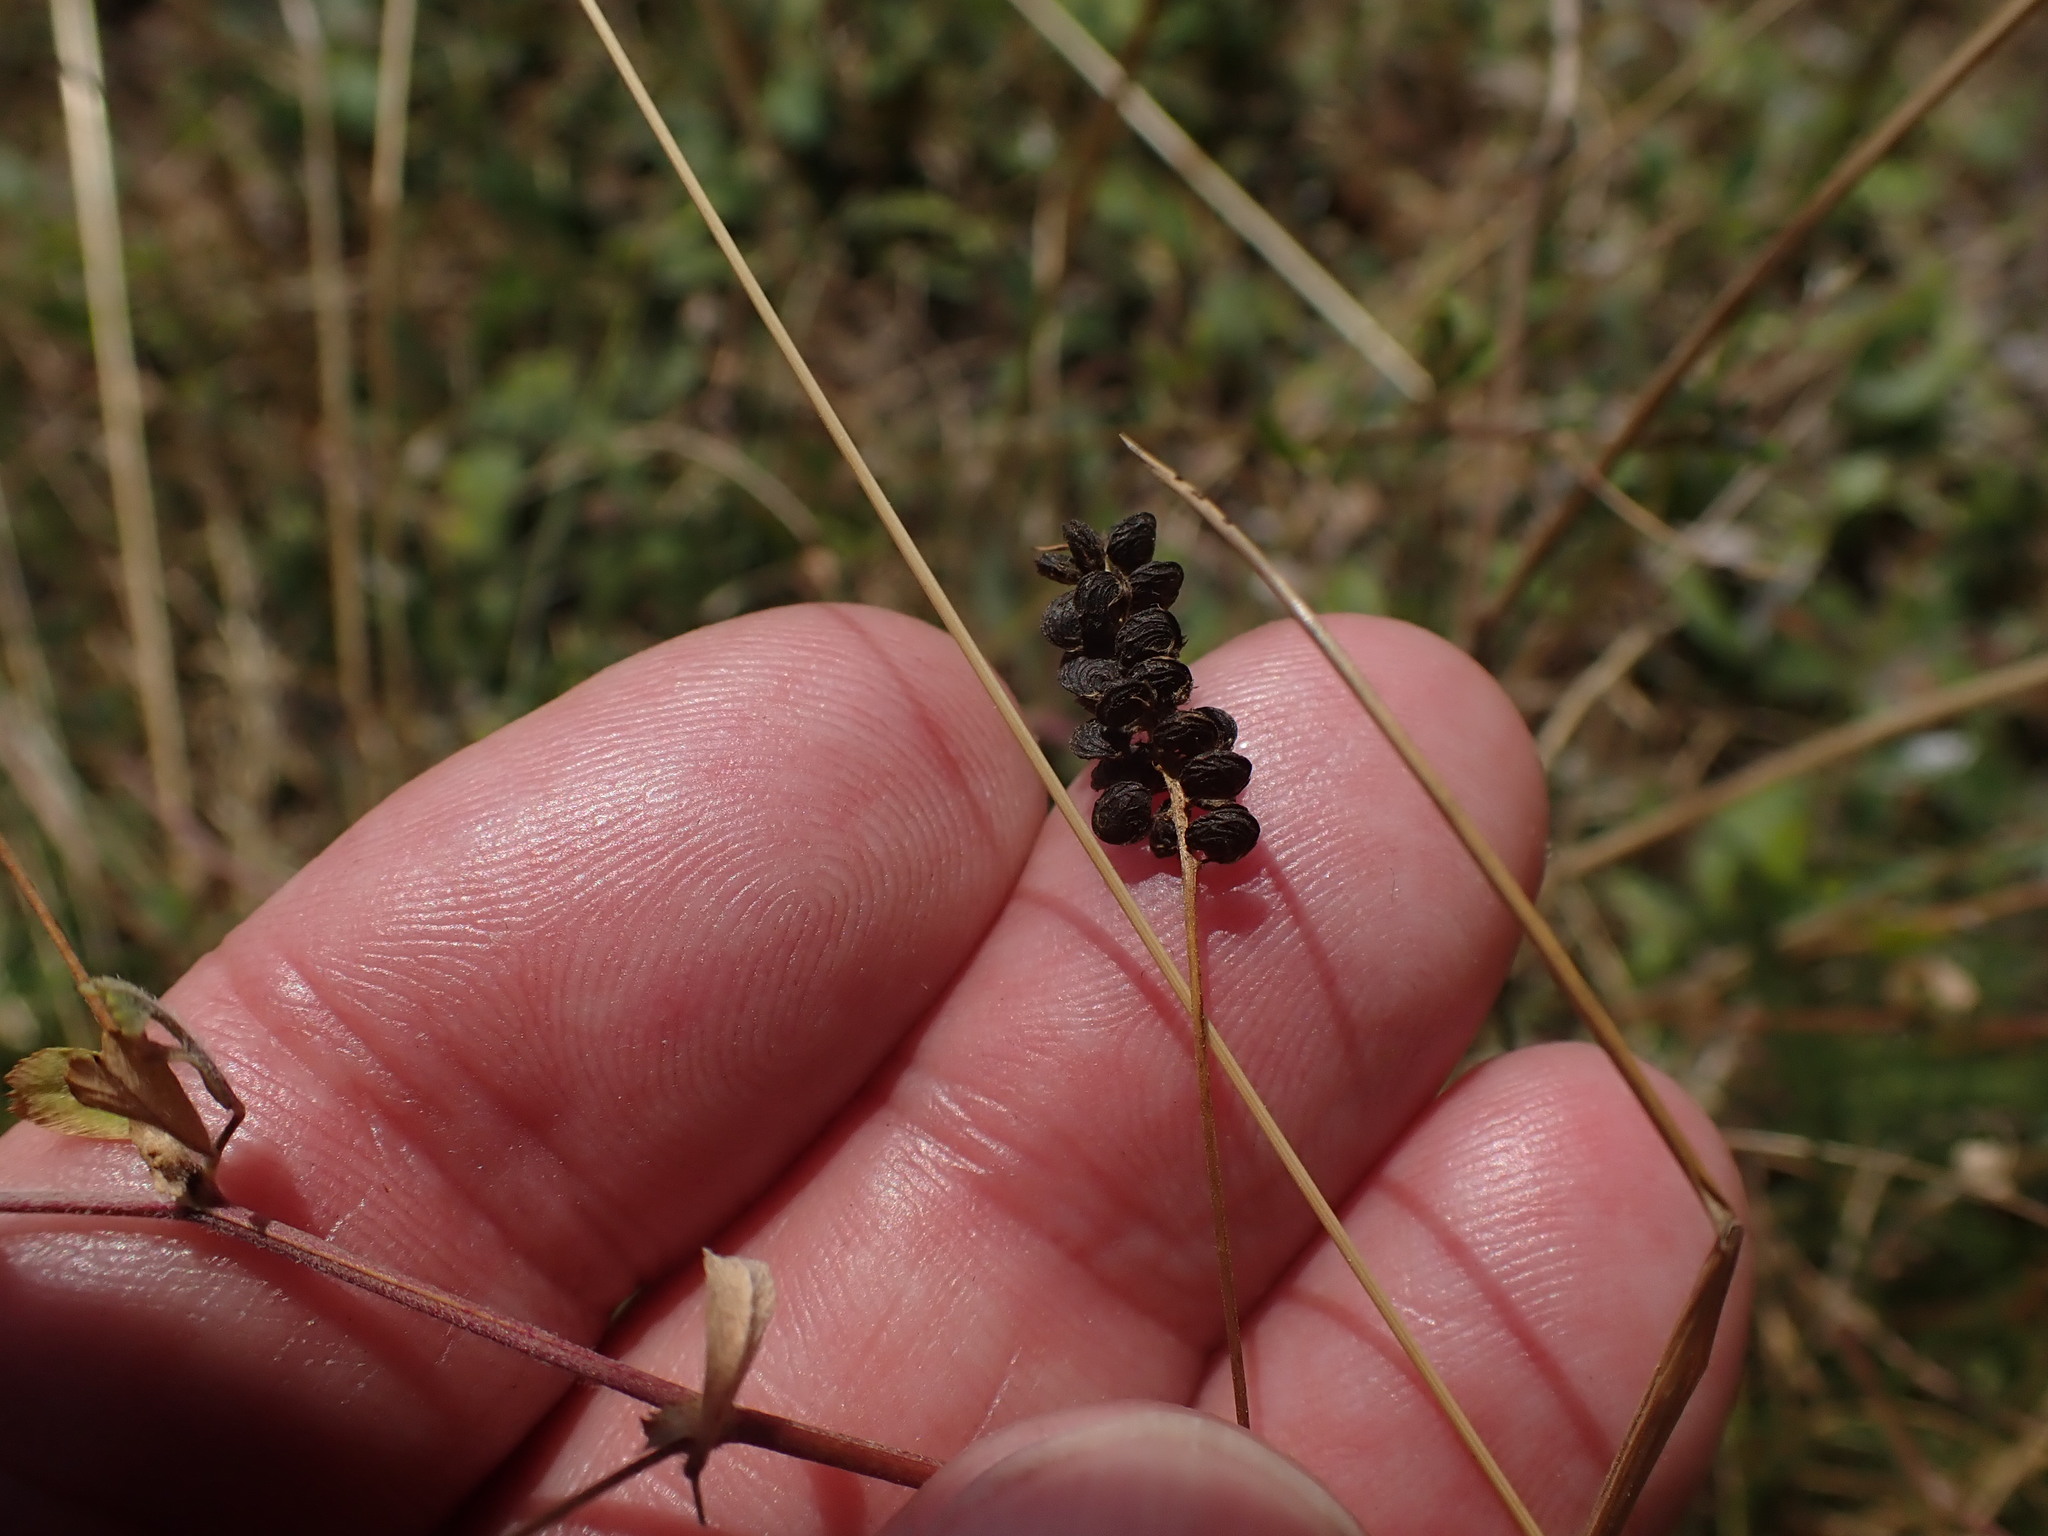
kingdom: Plantae
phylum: Tracheophyta
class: Magnoliopsida
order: Fabales
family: Fabaceae
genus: Medicago
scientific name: Medicago lupulina
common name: Black medick
